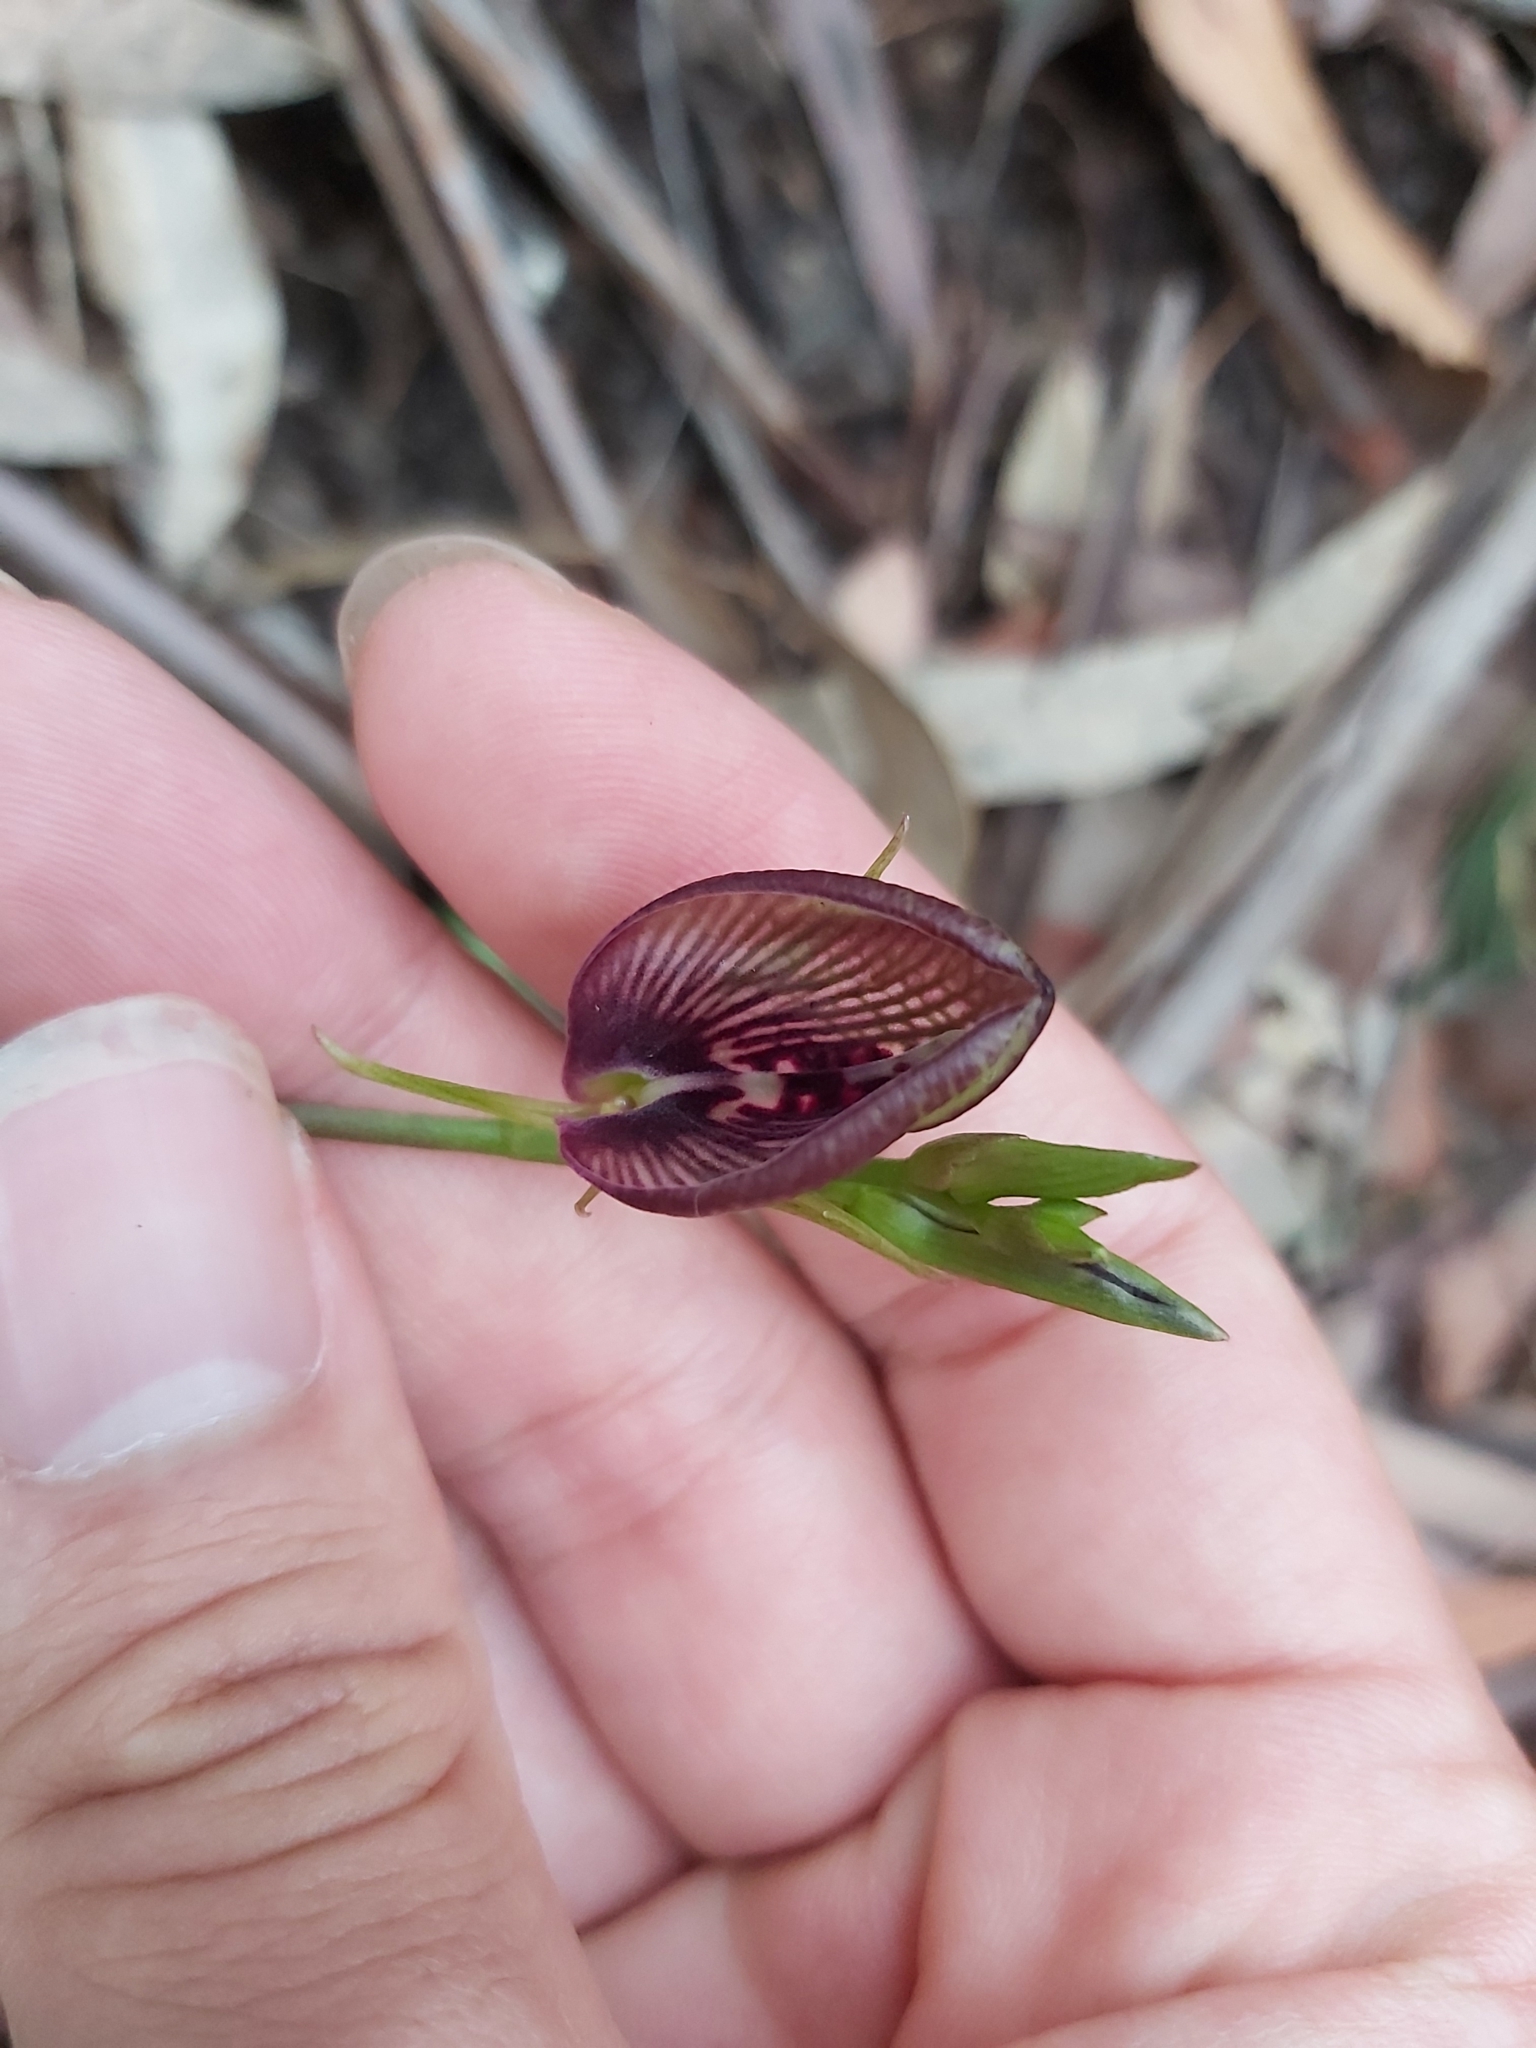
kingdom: Plantae
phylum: Tracheophyta
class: Liliopsida
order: Asparagales
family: Orchidaceae
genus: Cryptostylis
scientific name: Cryptostylis erecta
